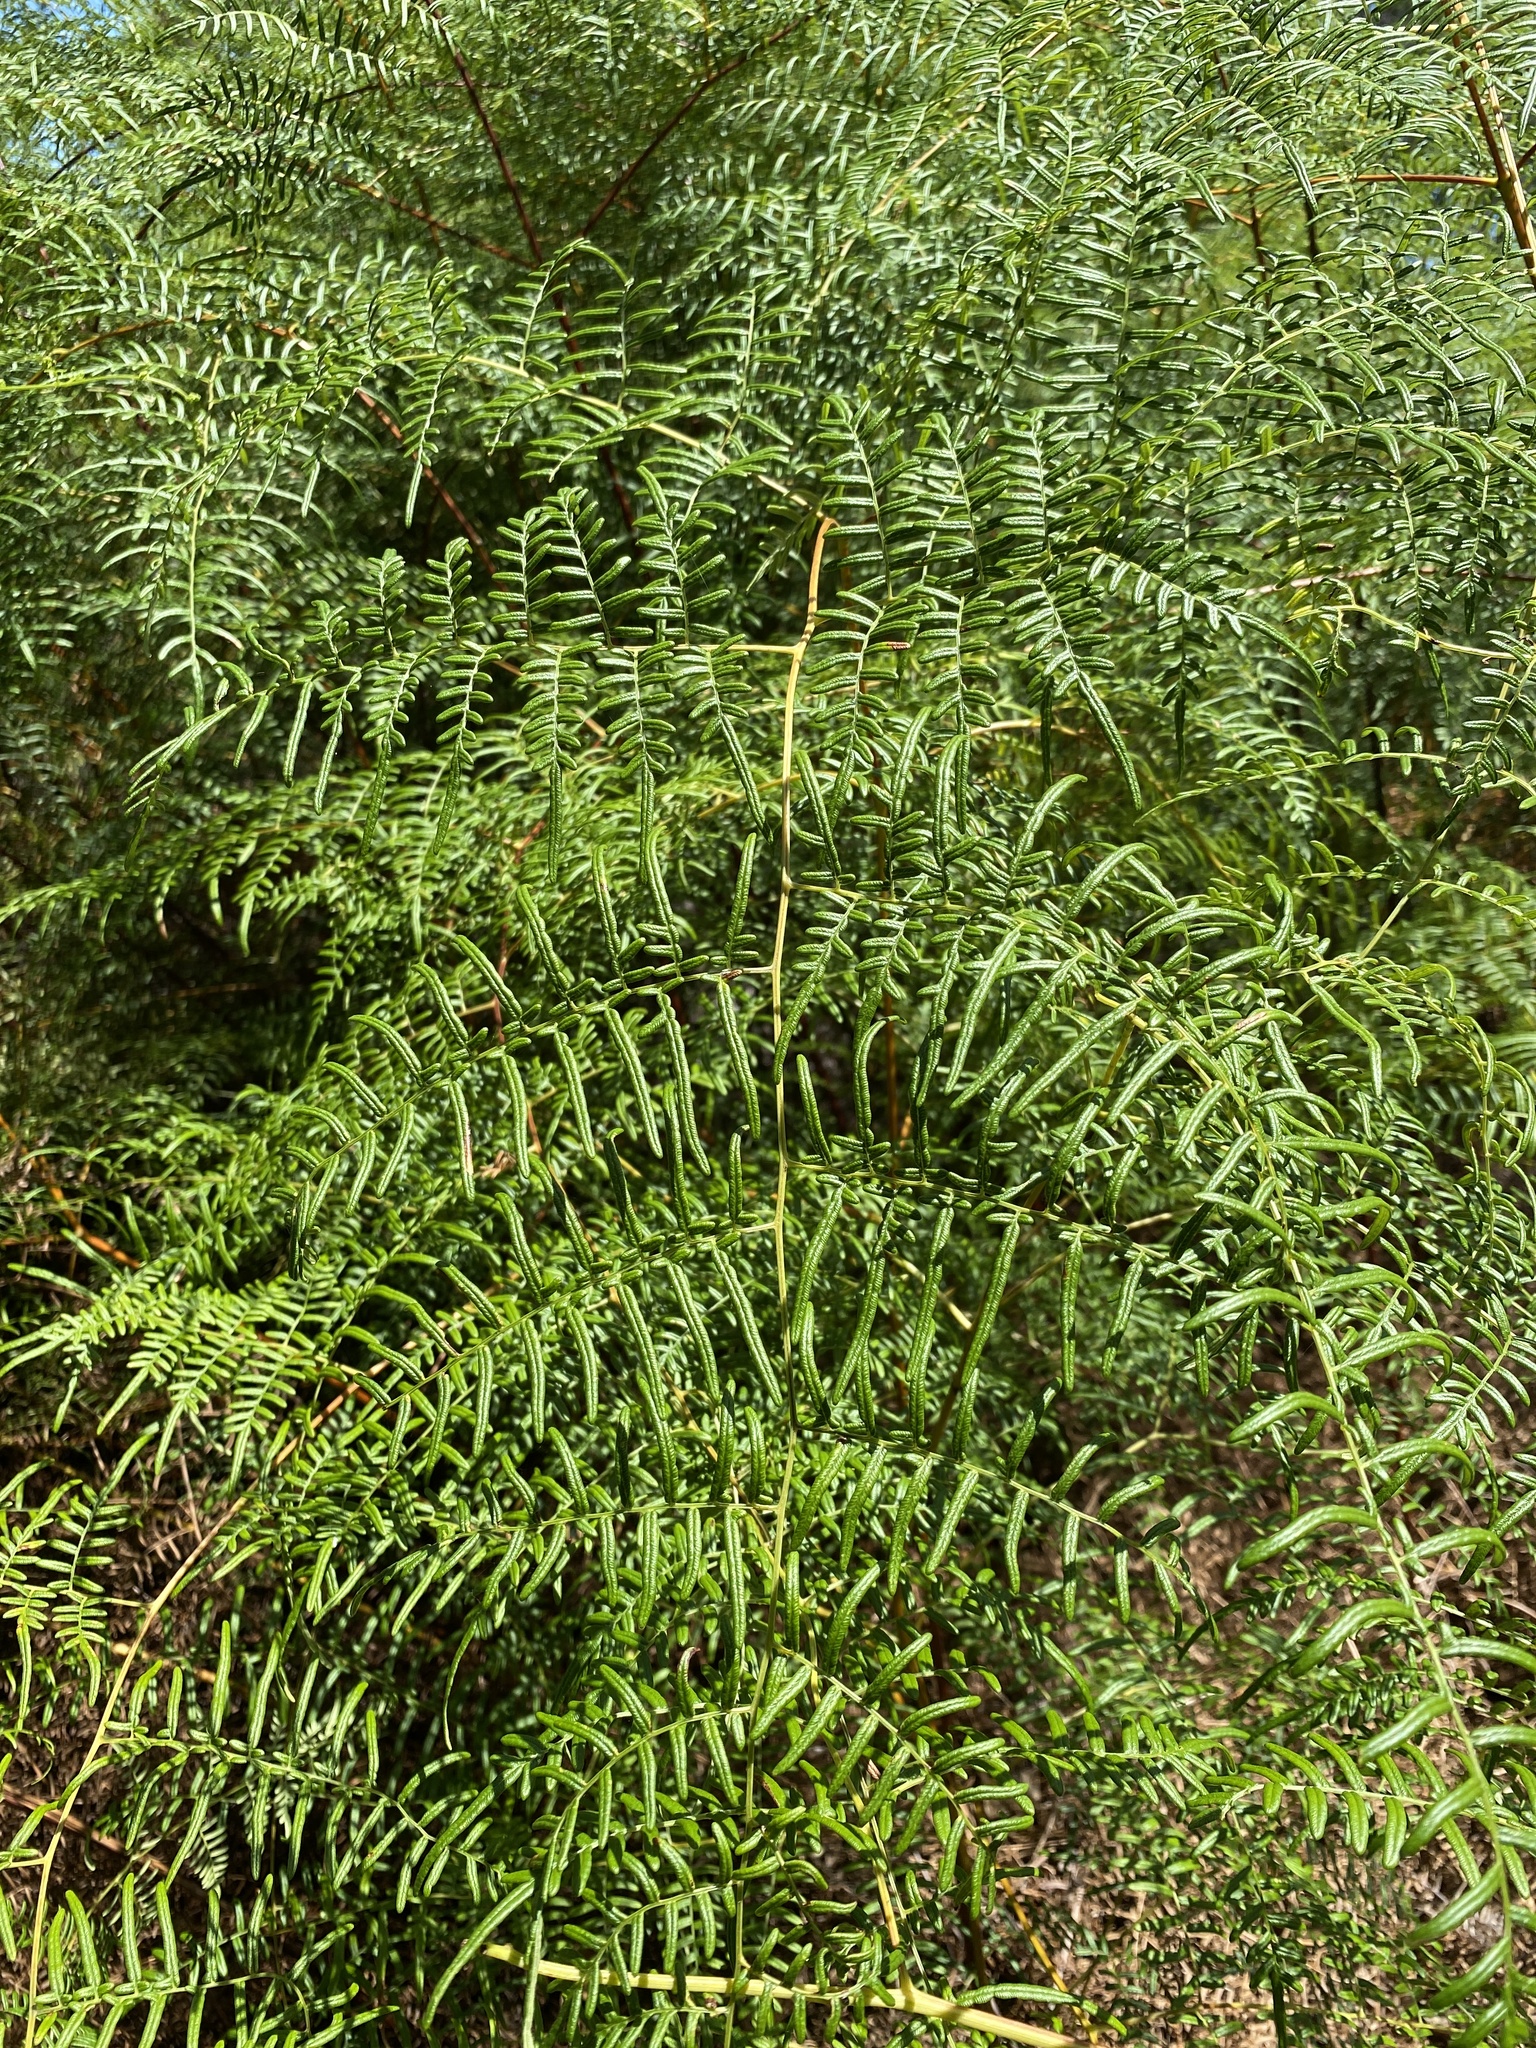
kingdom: Plantae
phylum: Tracheophyta
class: Polypodiopsida
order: Polypodiales
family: Dennstaedtiaceae
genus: Pteridium
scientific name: Pteridium caudatum
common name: Southern bracken fern
